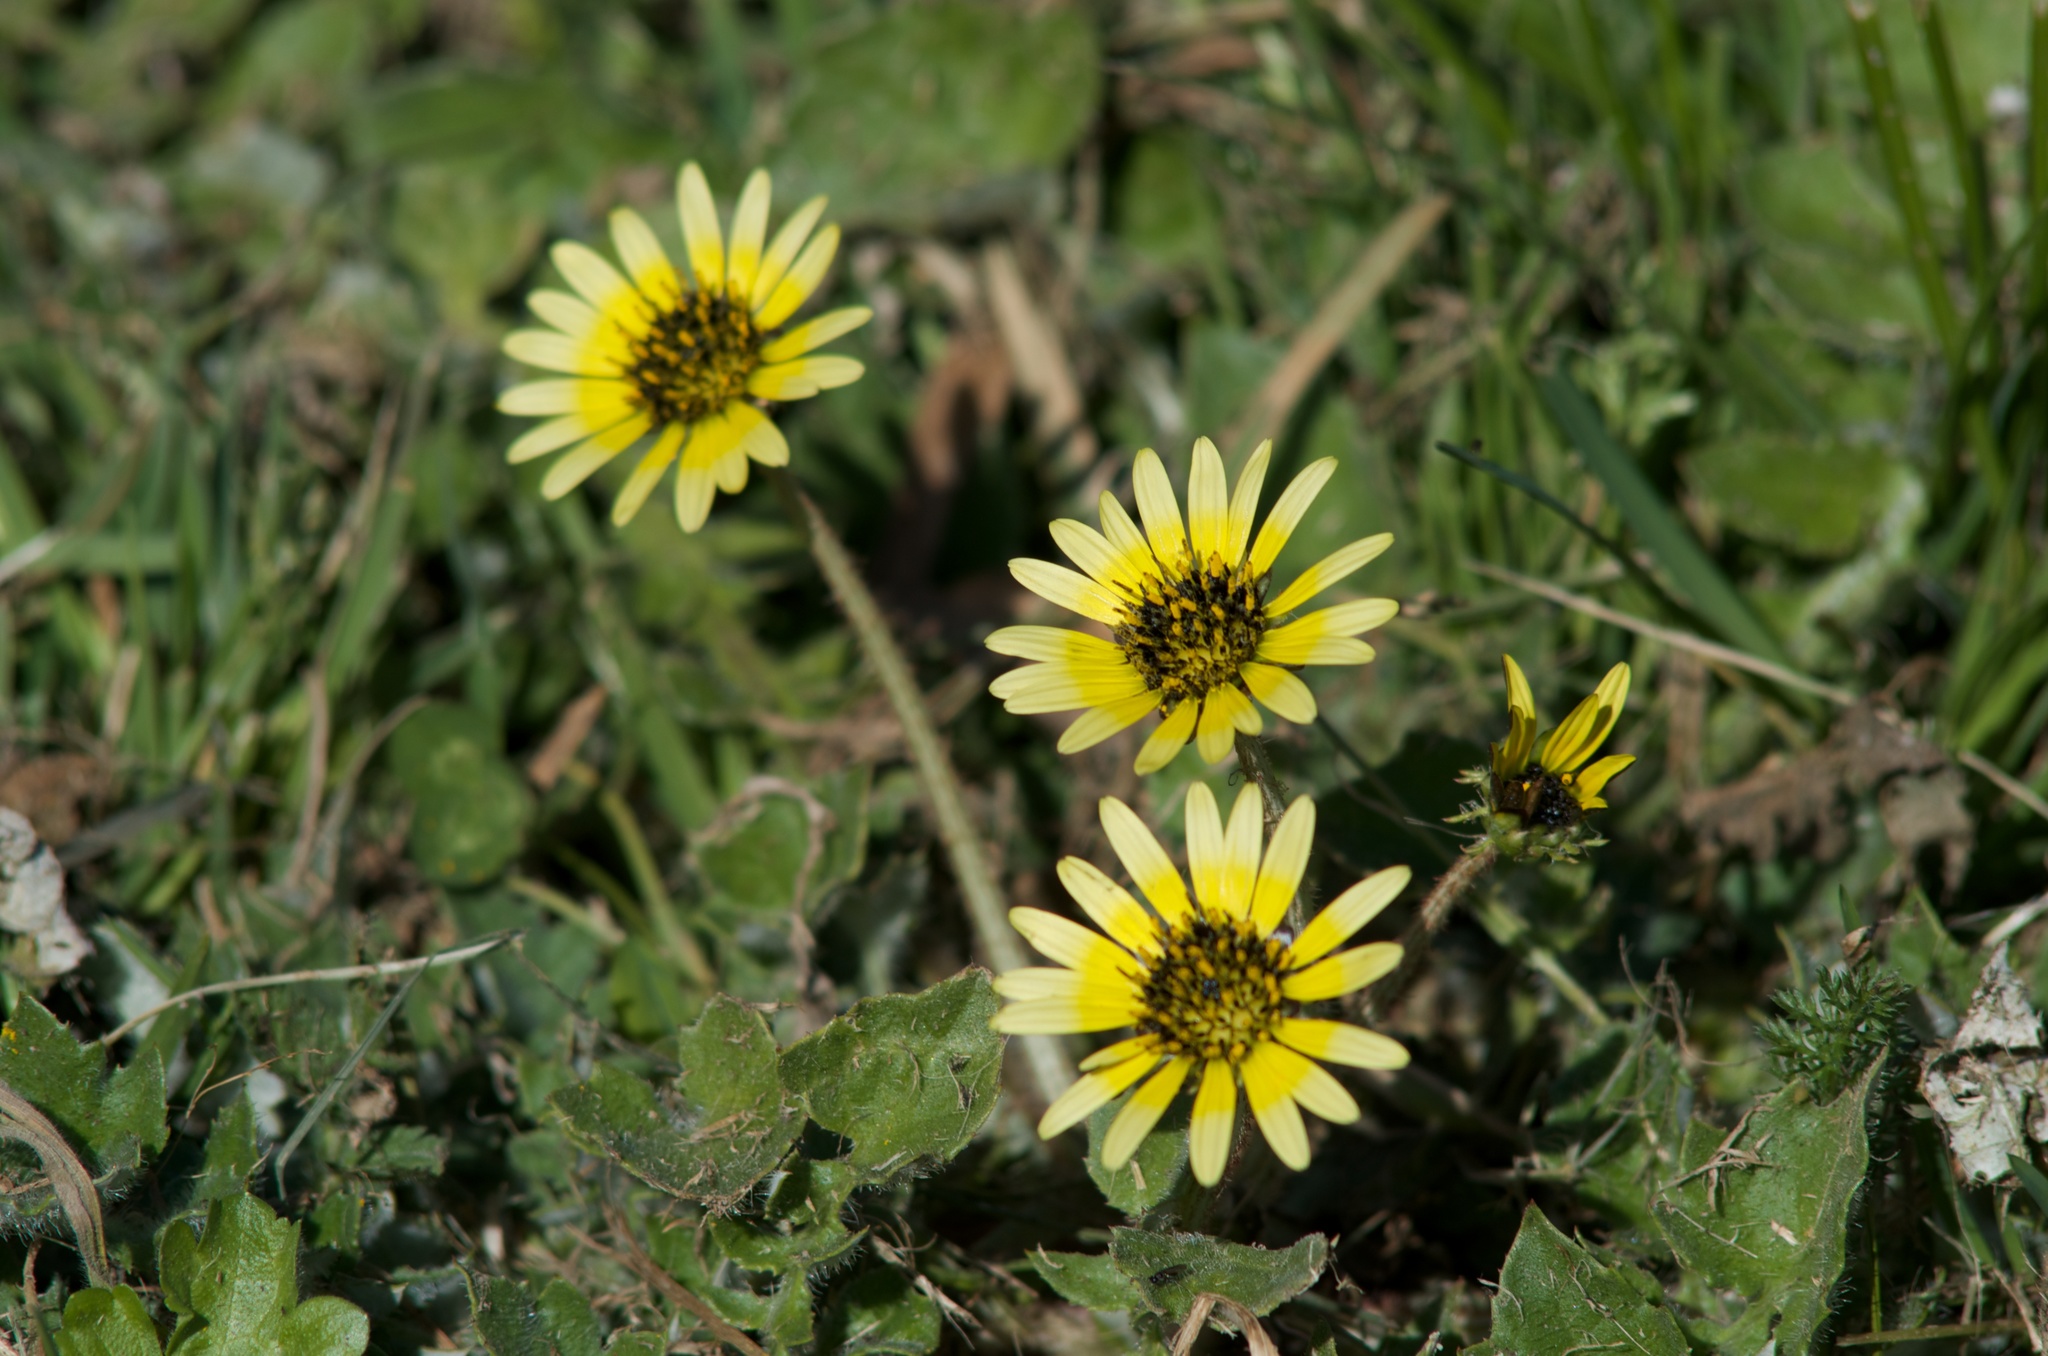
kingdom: Plantae
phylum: Tracheophyta
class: Magnoliopsida
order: Asterales
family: Asteraceae
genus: Arctotheca
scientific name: Arctotheca calendula
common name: Capeweed
